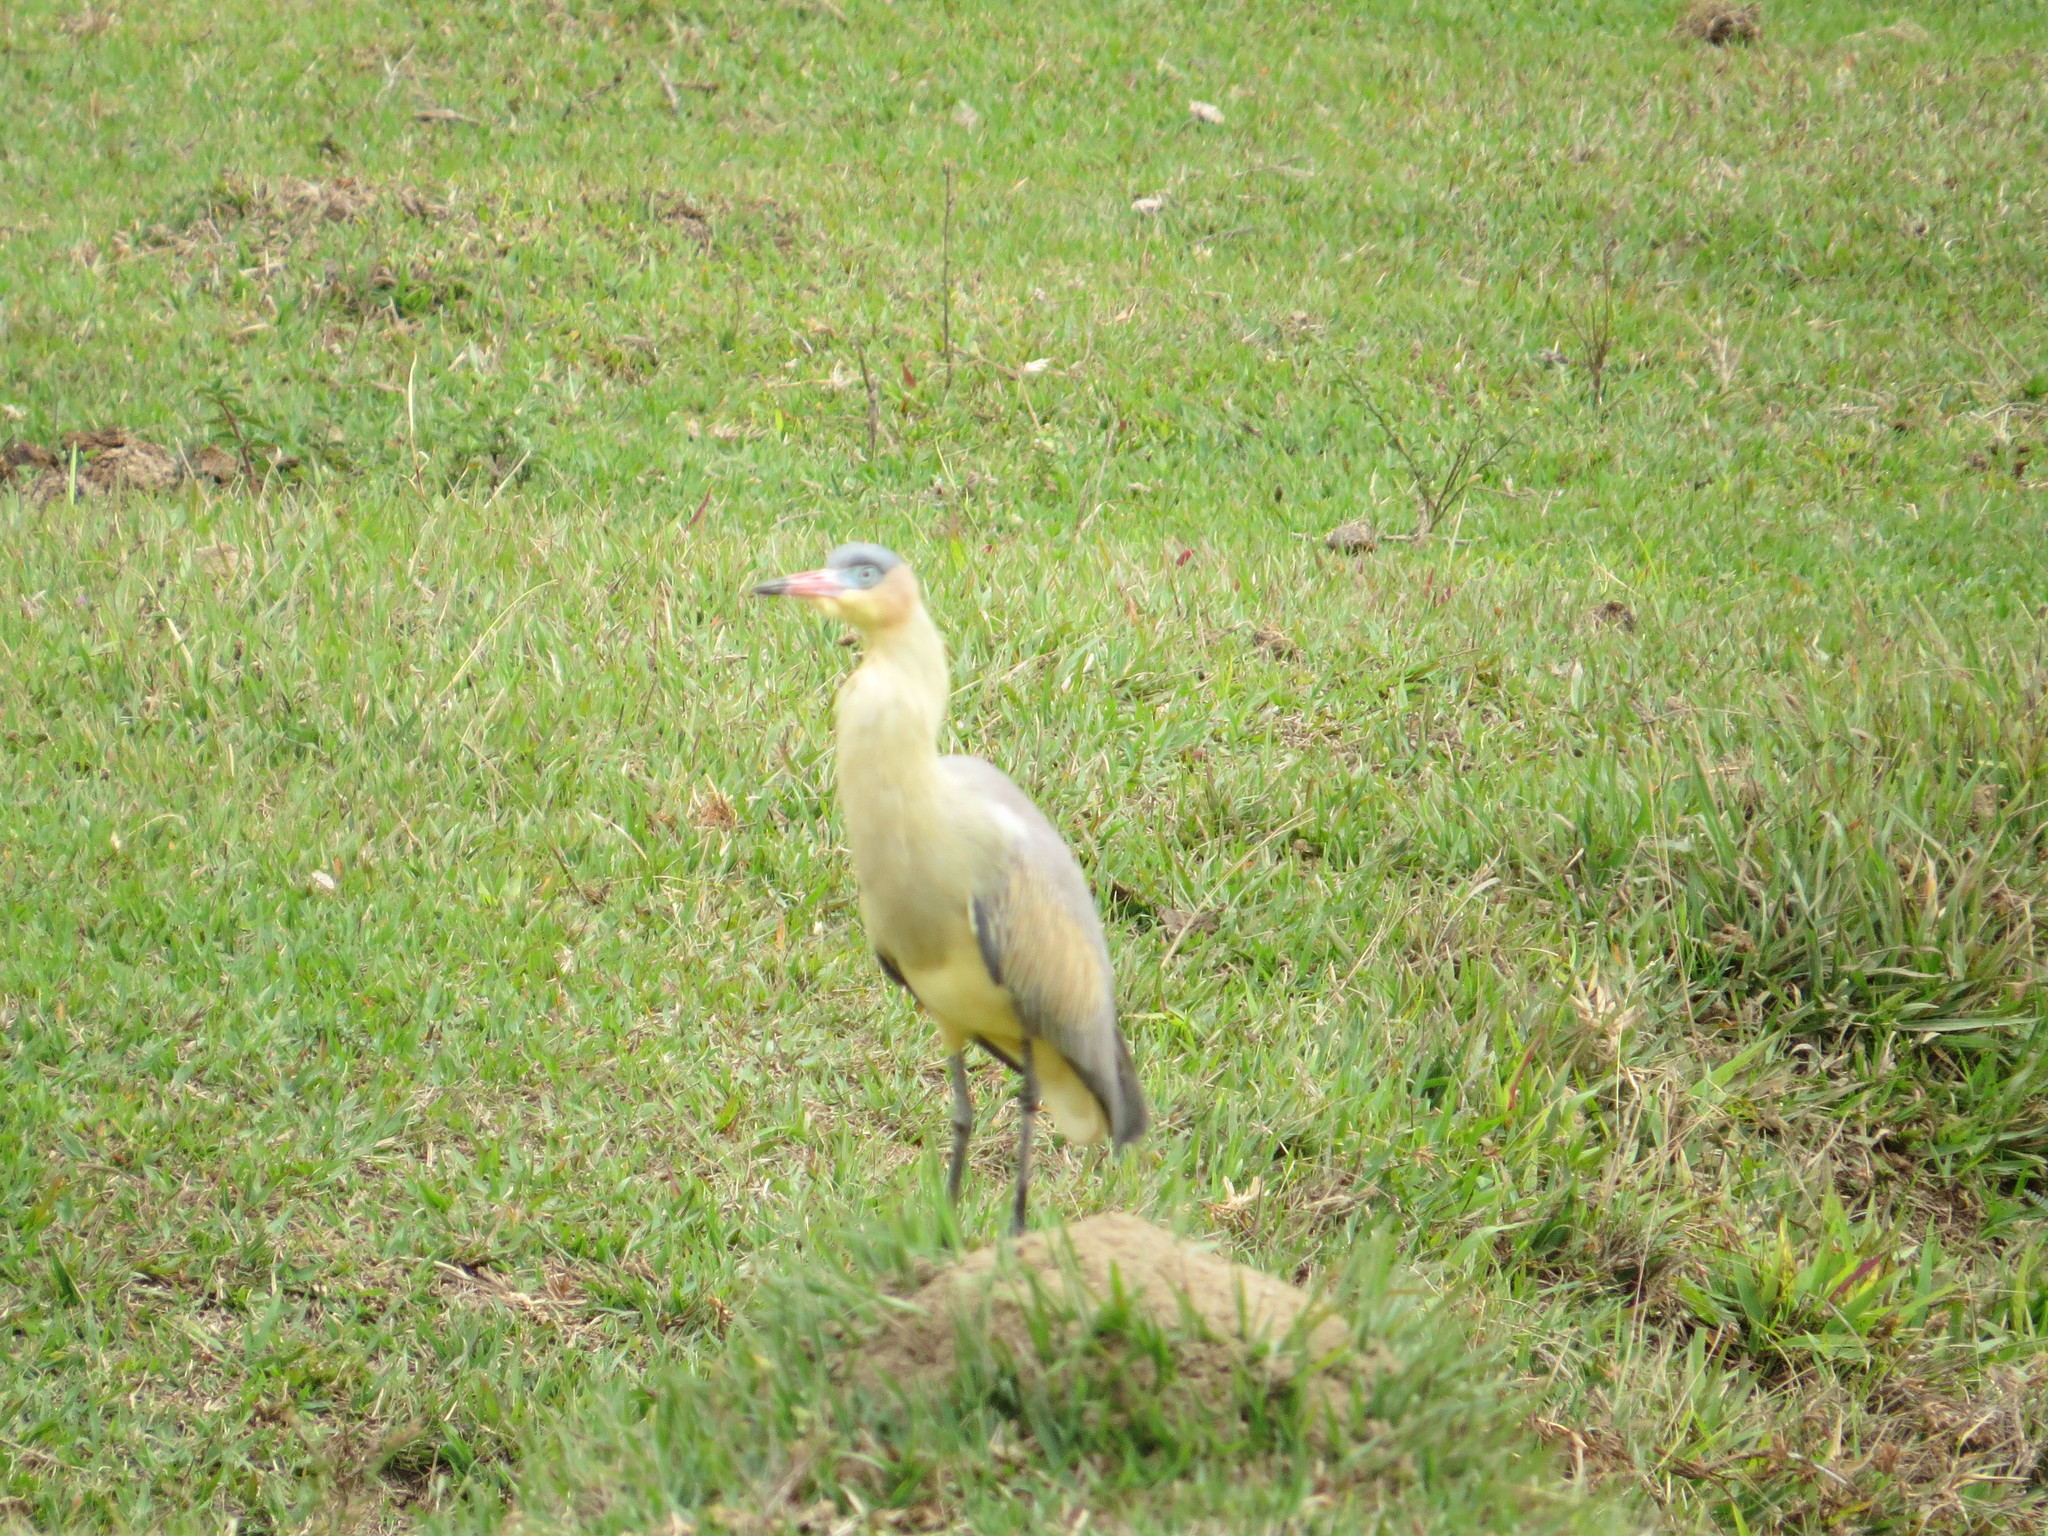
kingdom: Animalia
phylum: Chordata
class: Aves
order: Pelecaniformes
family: Ardeidae
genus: Syrigma
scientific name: Syrigma sibilatrix
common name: Whistling heron
